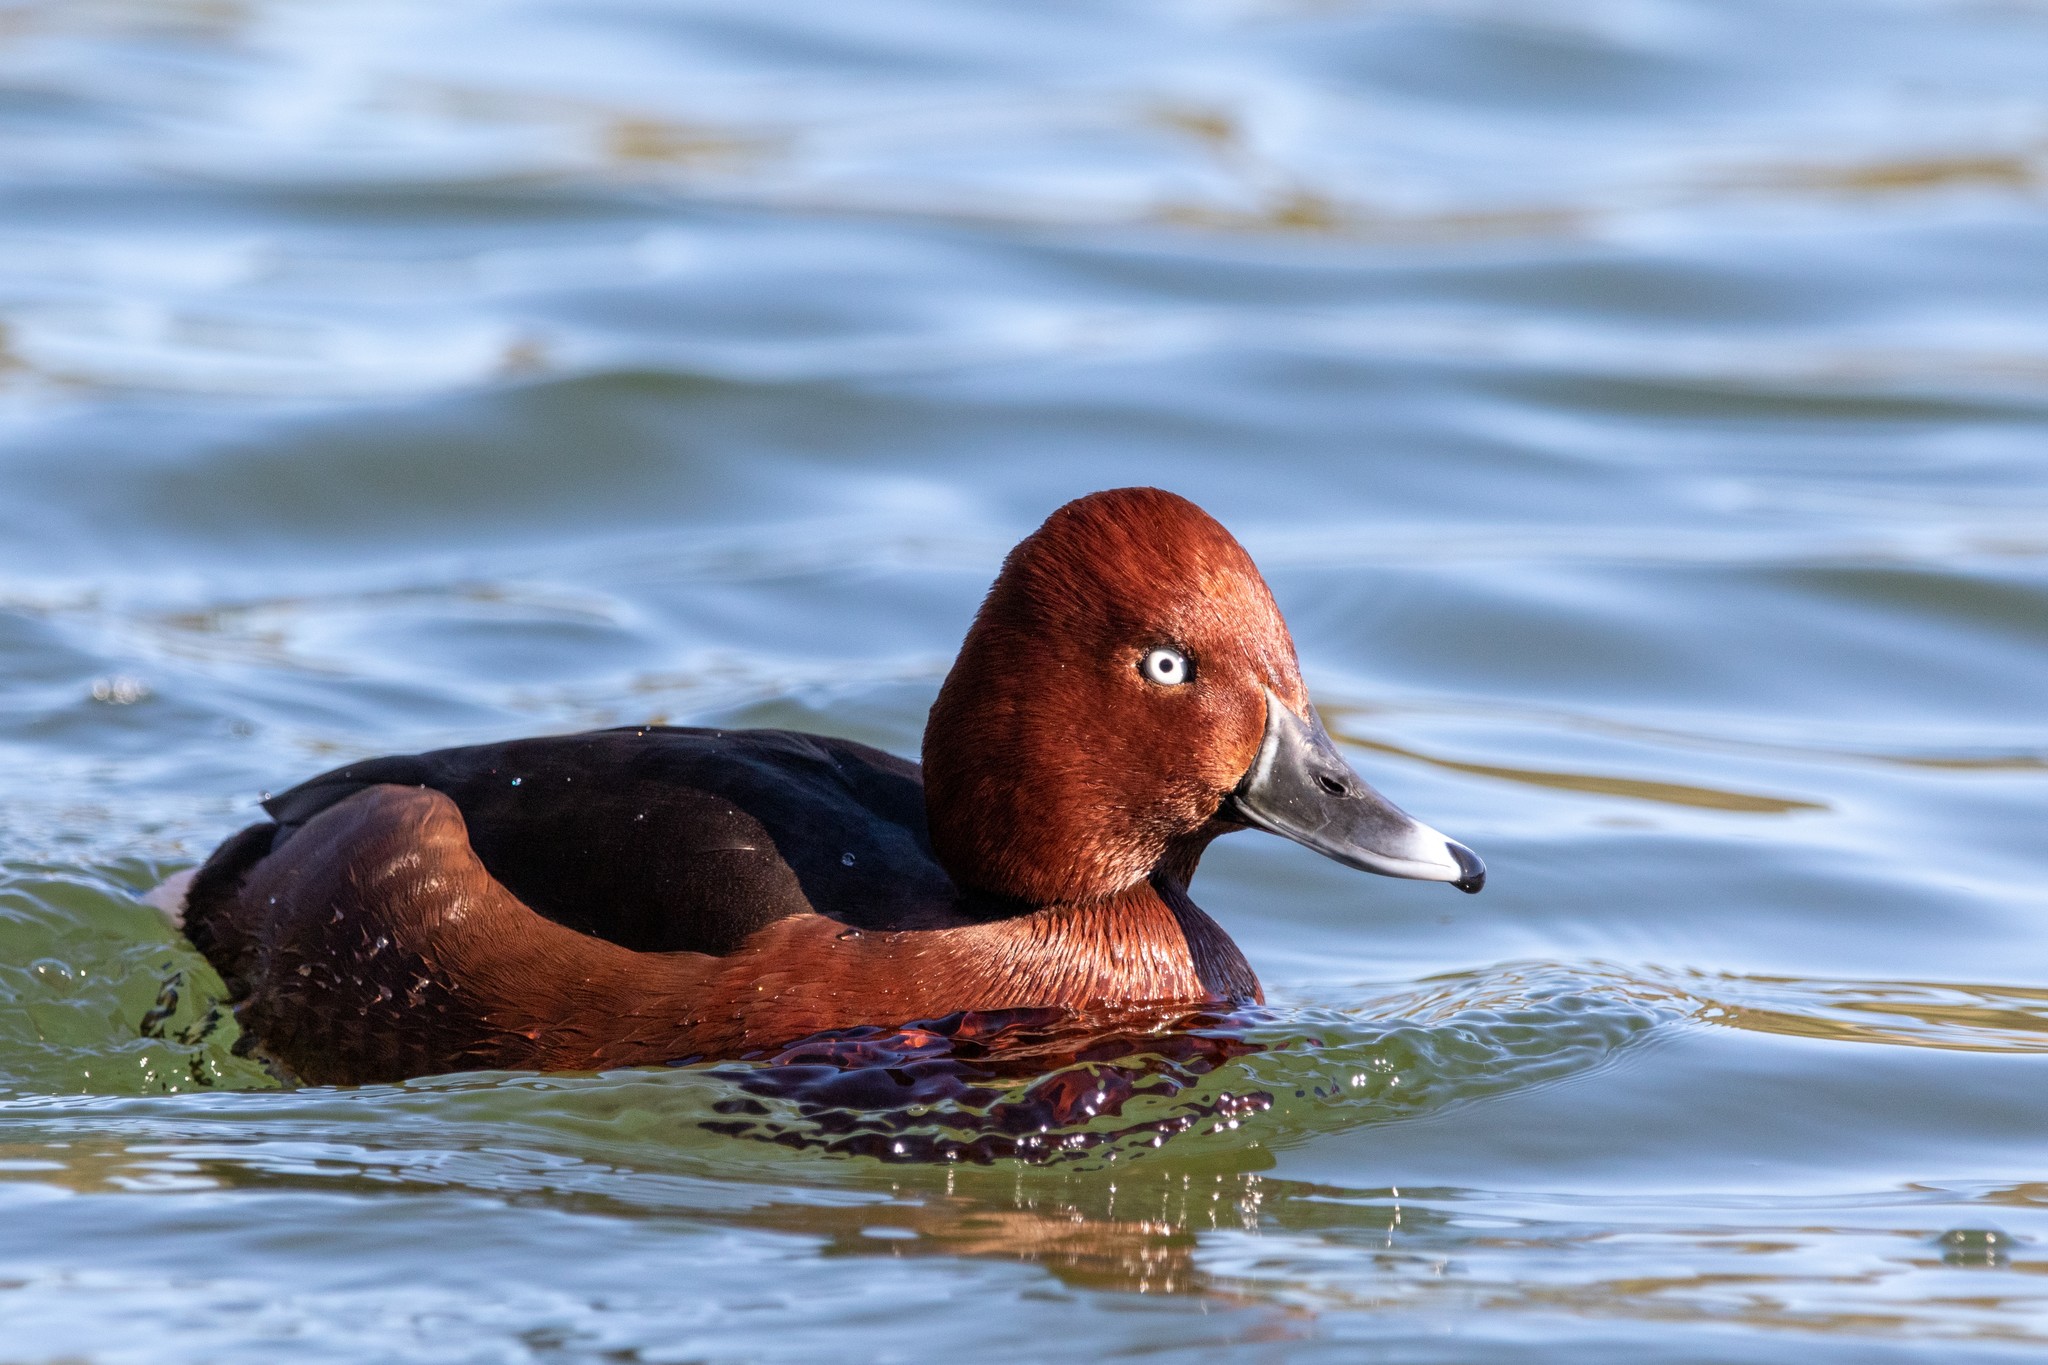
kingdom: Animalia
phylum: Chordata
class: Aves
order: Anseriformes
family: Anatidae
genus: Aythya
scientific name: Aythya nyroca
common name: Ferruginous duck
